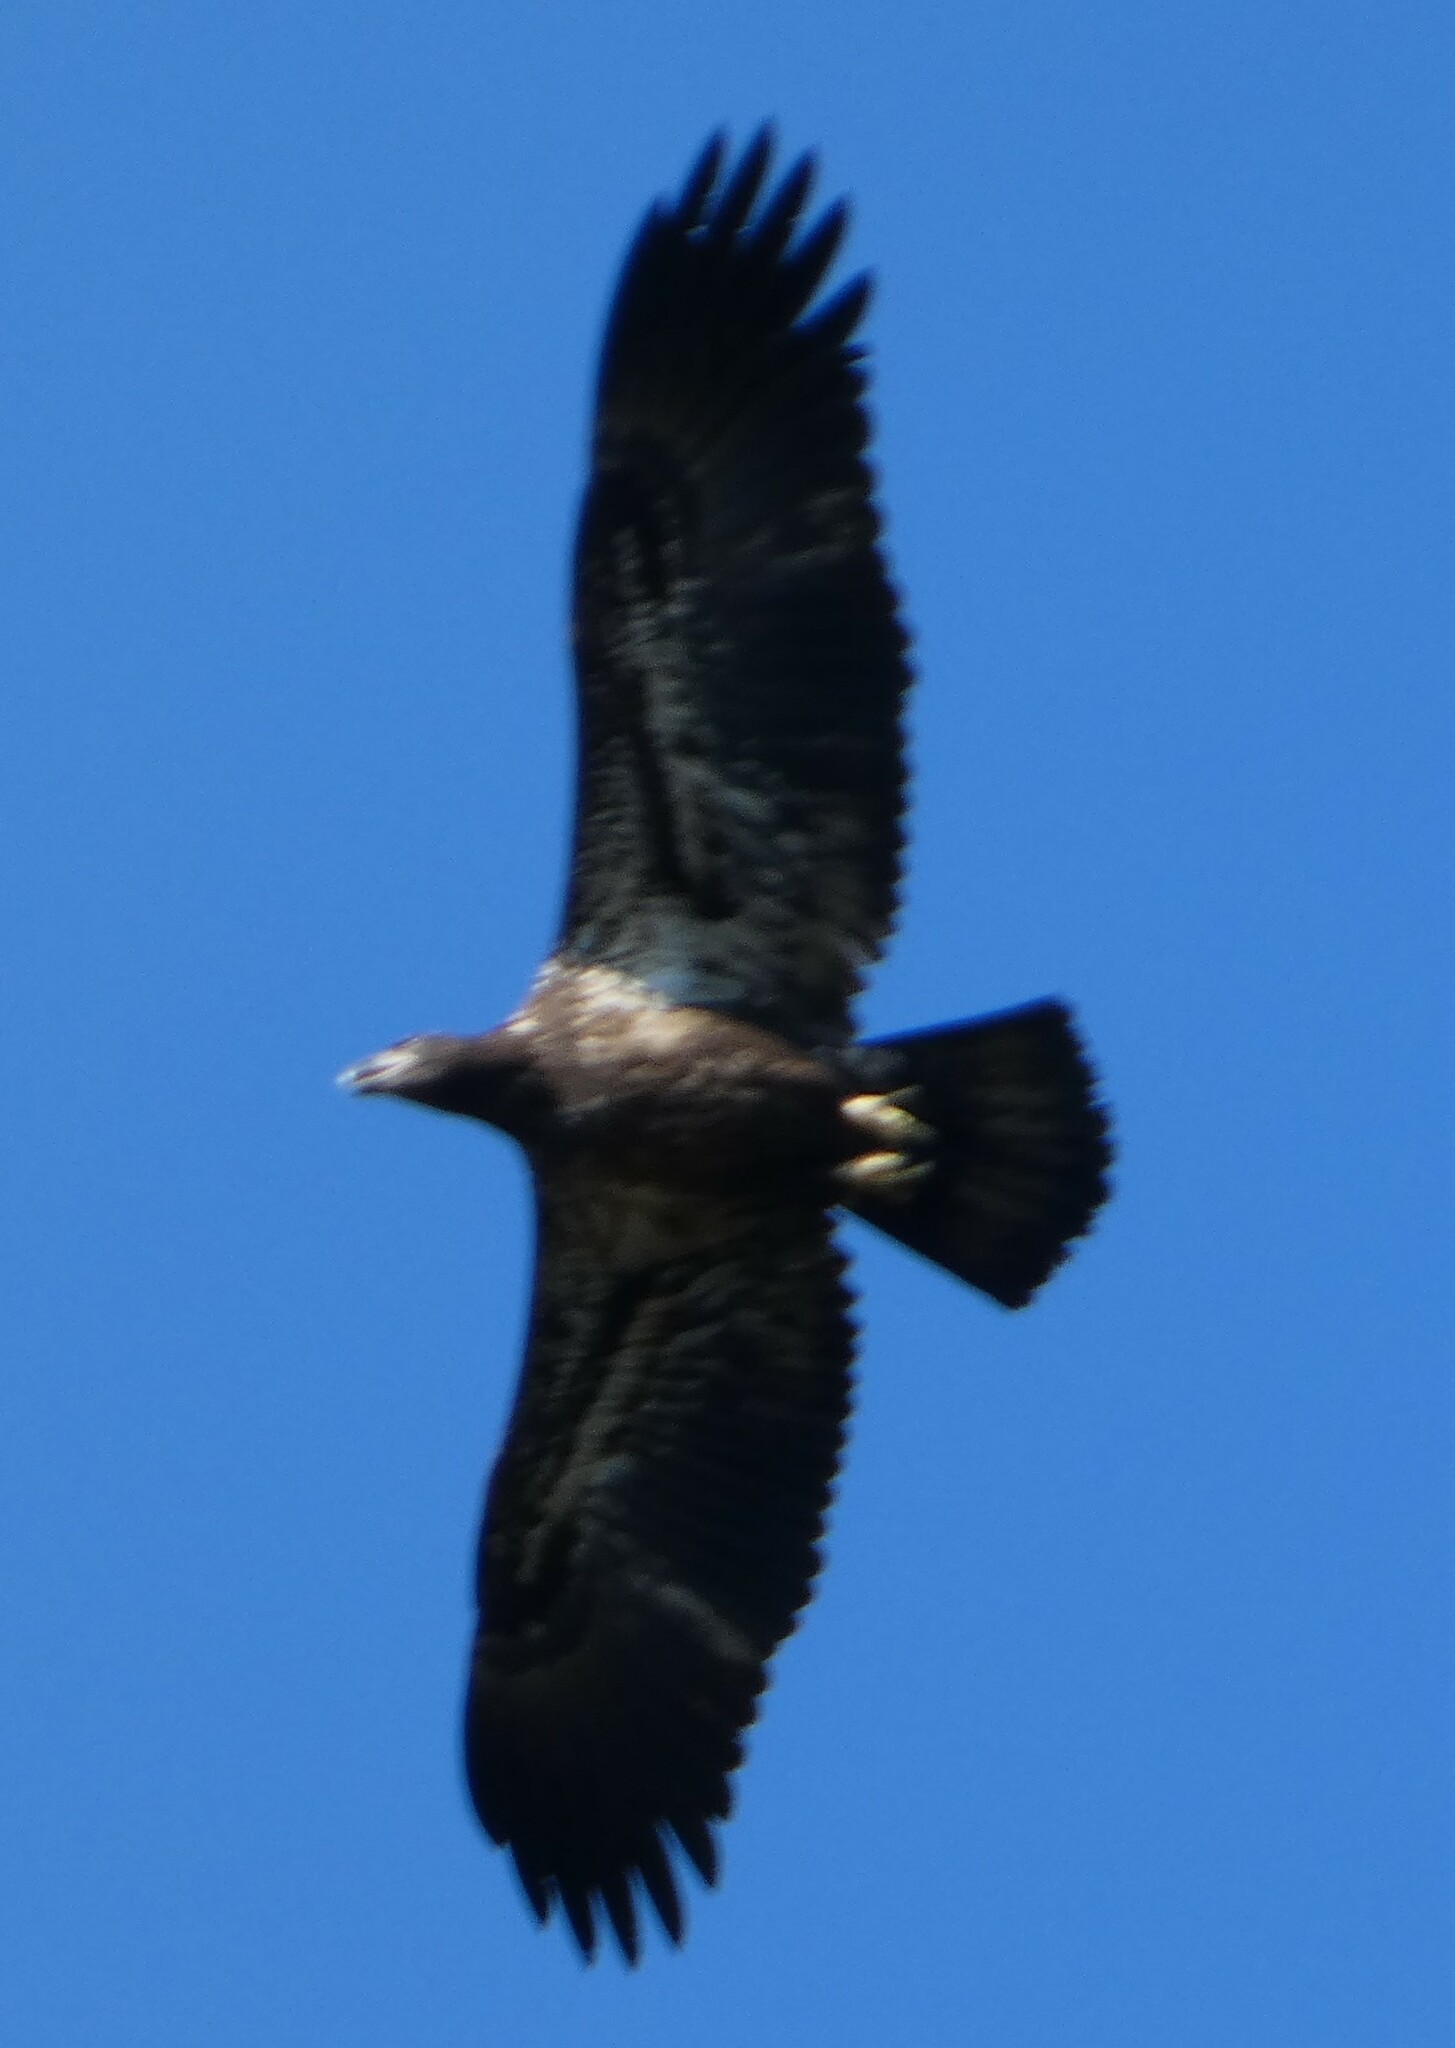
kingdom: Animalia
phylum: Chordata
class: Aves
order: Accipitriformes
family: Accipitridae
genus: Haliaeetus
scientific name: Haliaeetus leucocephalus
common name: Bald eagle
